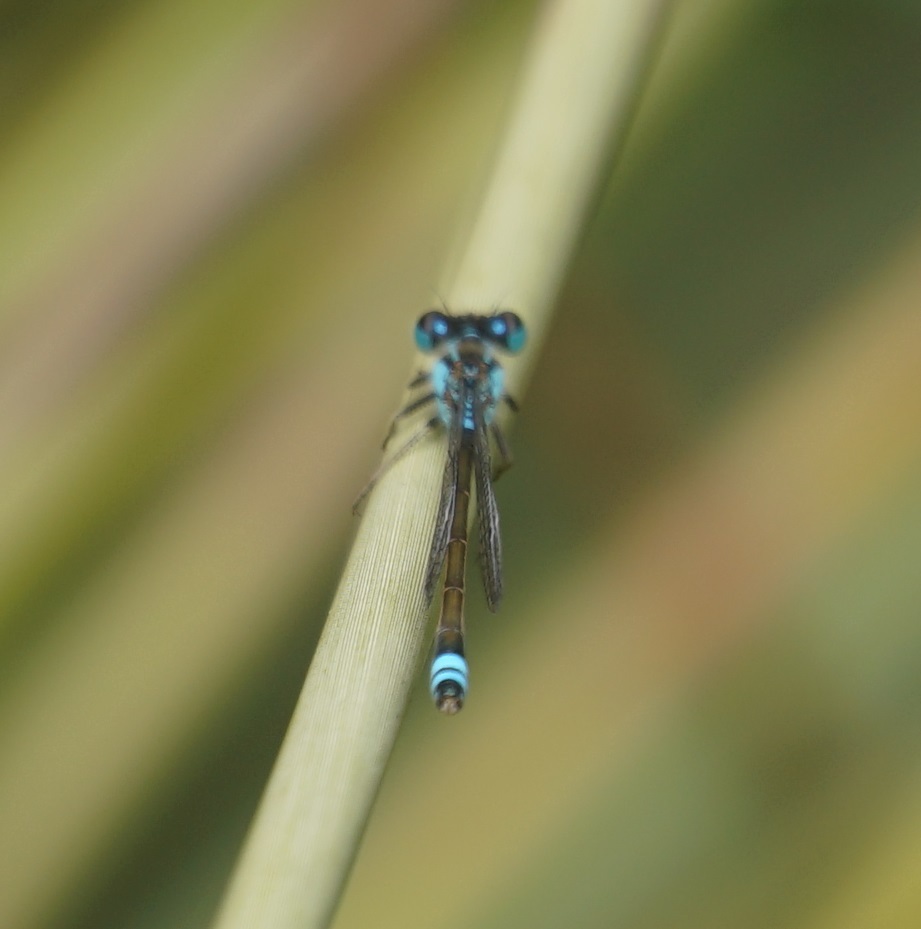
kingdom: Animalia
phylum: Arthropoda
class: Insecta
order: Odonata
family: Coenagrionidae
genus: Ischnura
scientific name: Ischnura heterosticta
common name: Common bluetail
